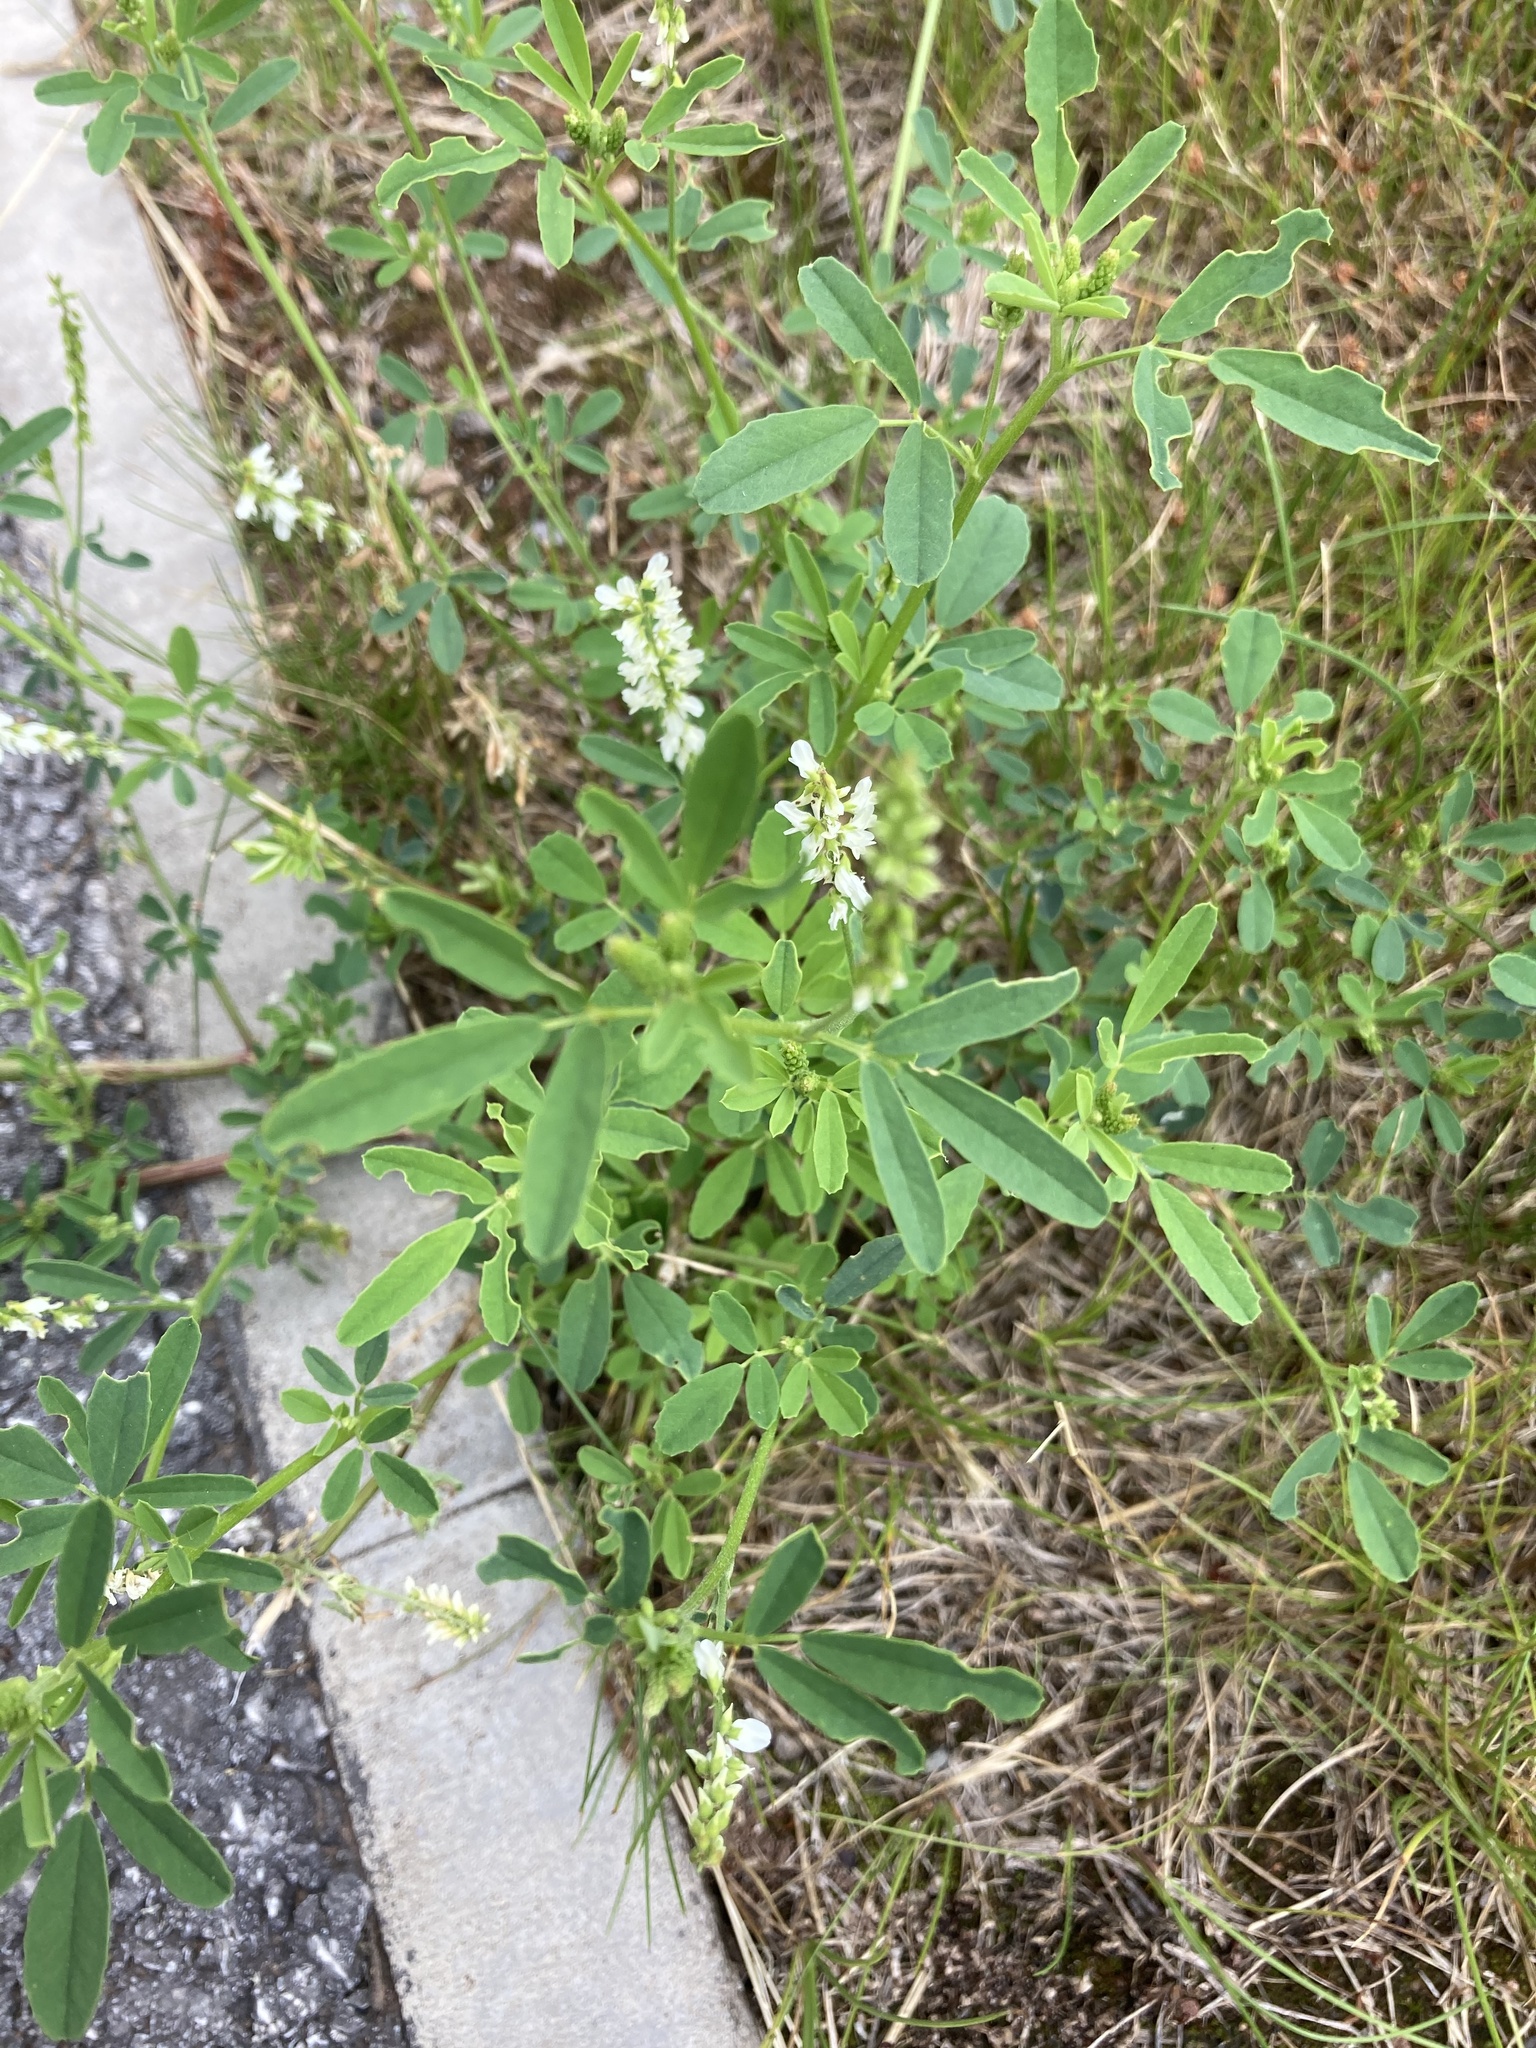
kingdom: Plantae
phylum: Tracheophyta
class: Magnoliopsida
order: Fabales
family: Fabaceae
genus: Melilotus
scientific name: Melilotus albus
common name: White melilot
